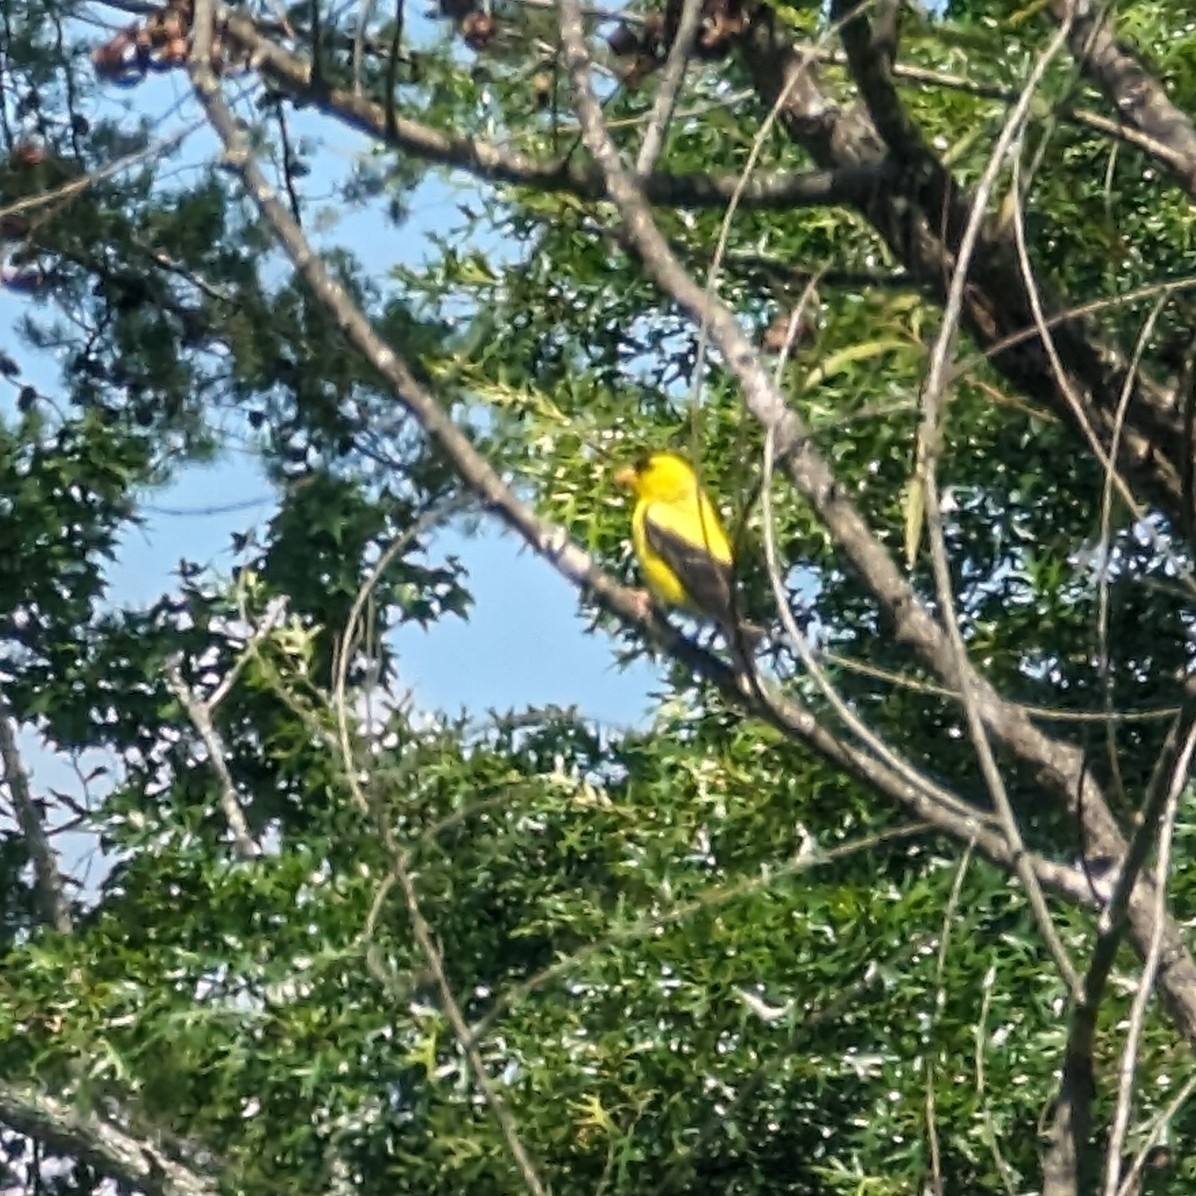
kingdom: Animalia
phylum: Chordata
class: Aves
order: Passeriformes
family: Fringillidae
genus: Spinus
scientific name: Spinus tristis
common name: American goldfinch
